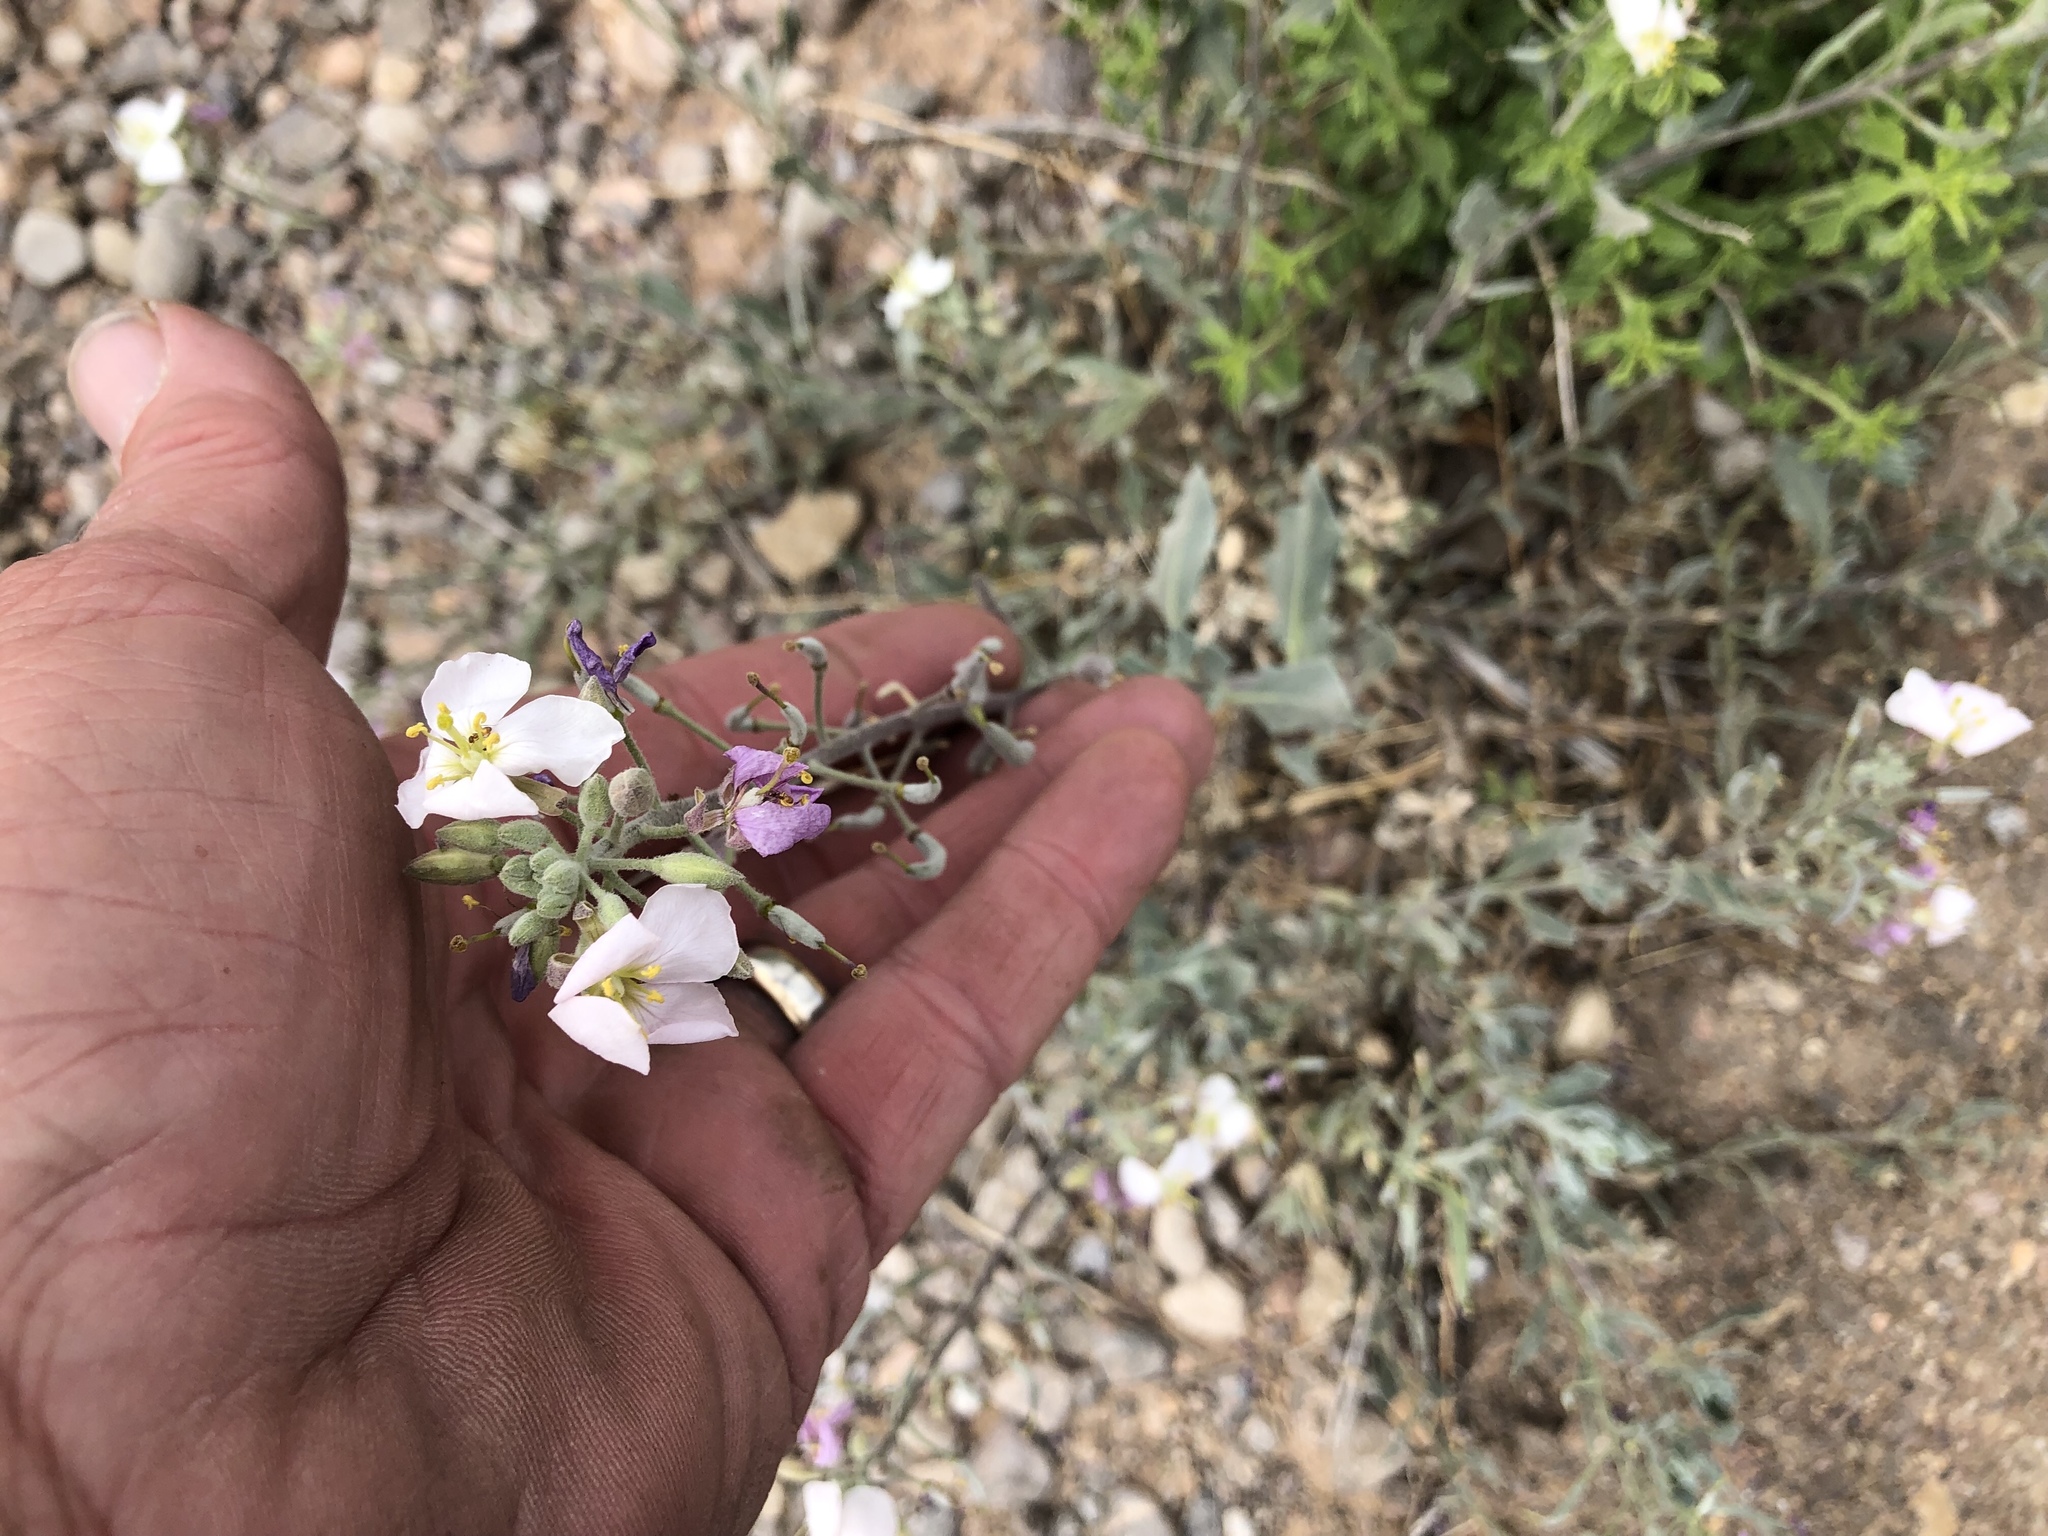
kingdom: Plantae
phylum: Tracheophyta
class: Magnoliopsida
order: Brassicales
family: Brassicaceae
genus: Nerisyrenia
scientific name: Nerisyrenia camporum
